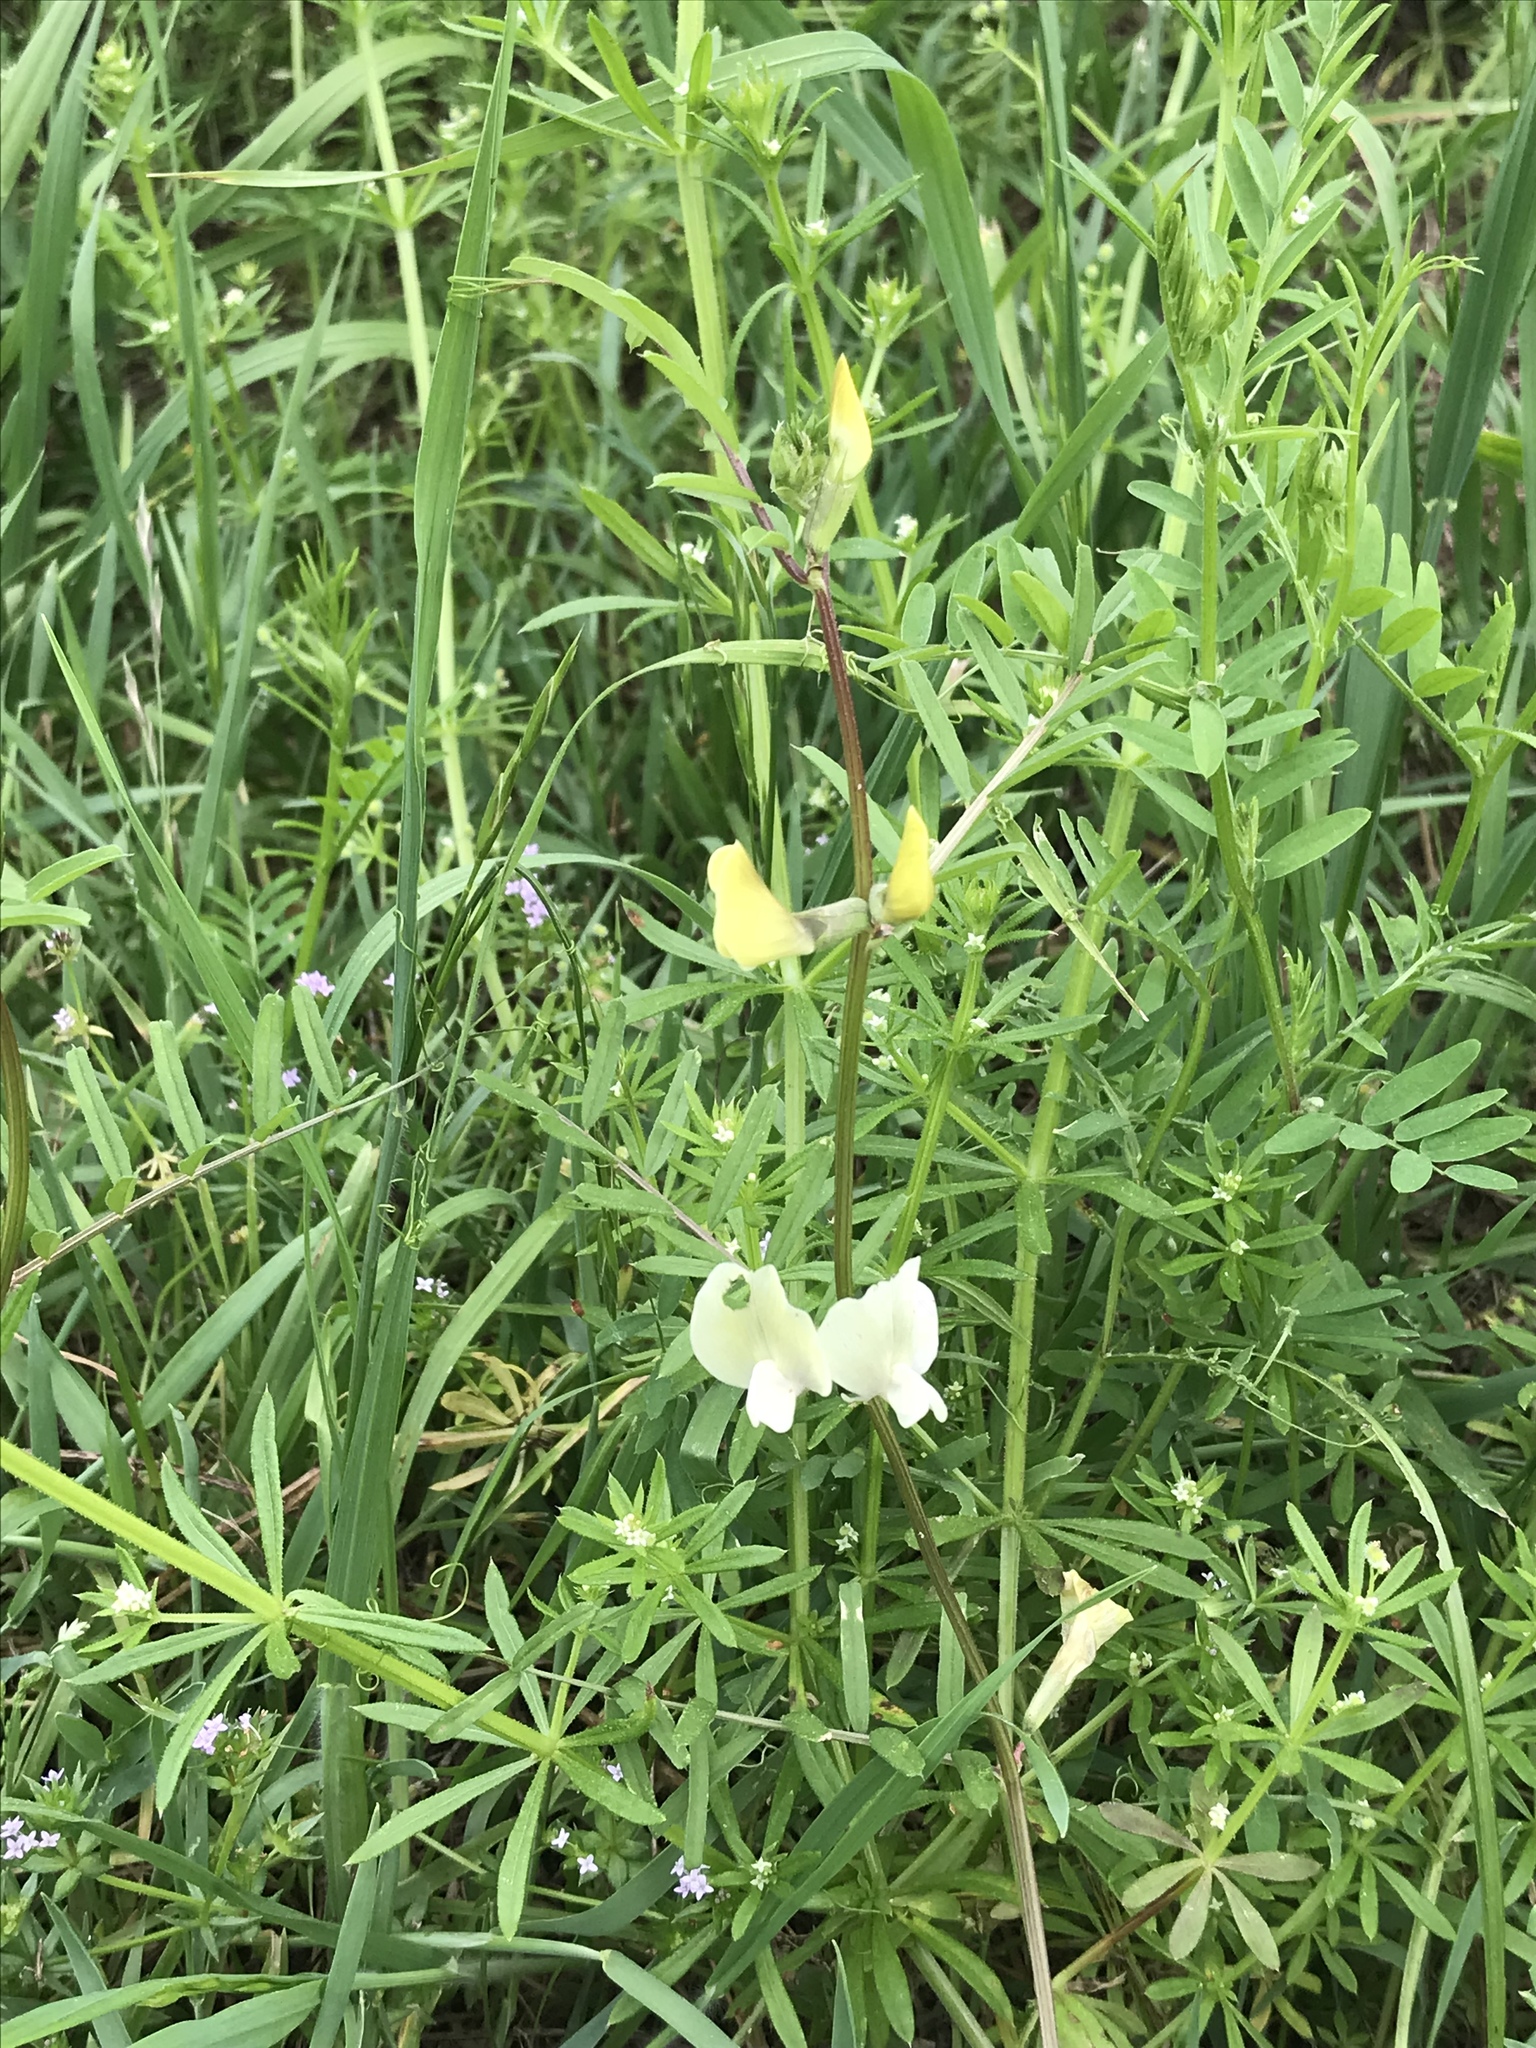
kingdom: Plantae
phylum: Tracheophyta
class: Magnoliopsida
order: Fabales
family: Fabaceae
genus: Vicia
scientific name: Vicia grandiflora
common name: Large yellow vetch
